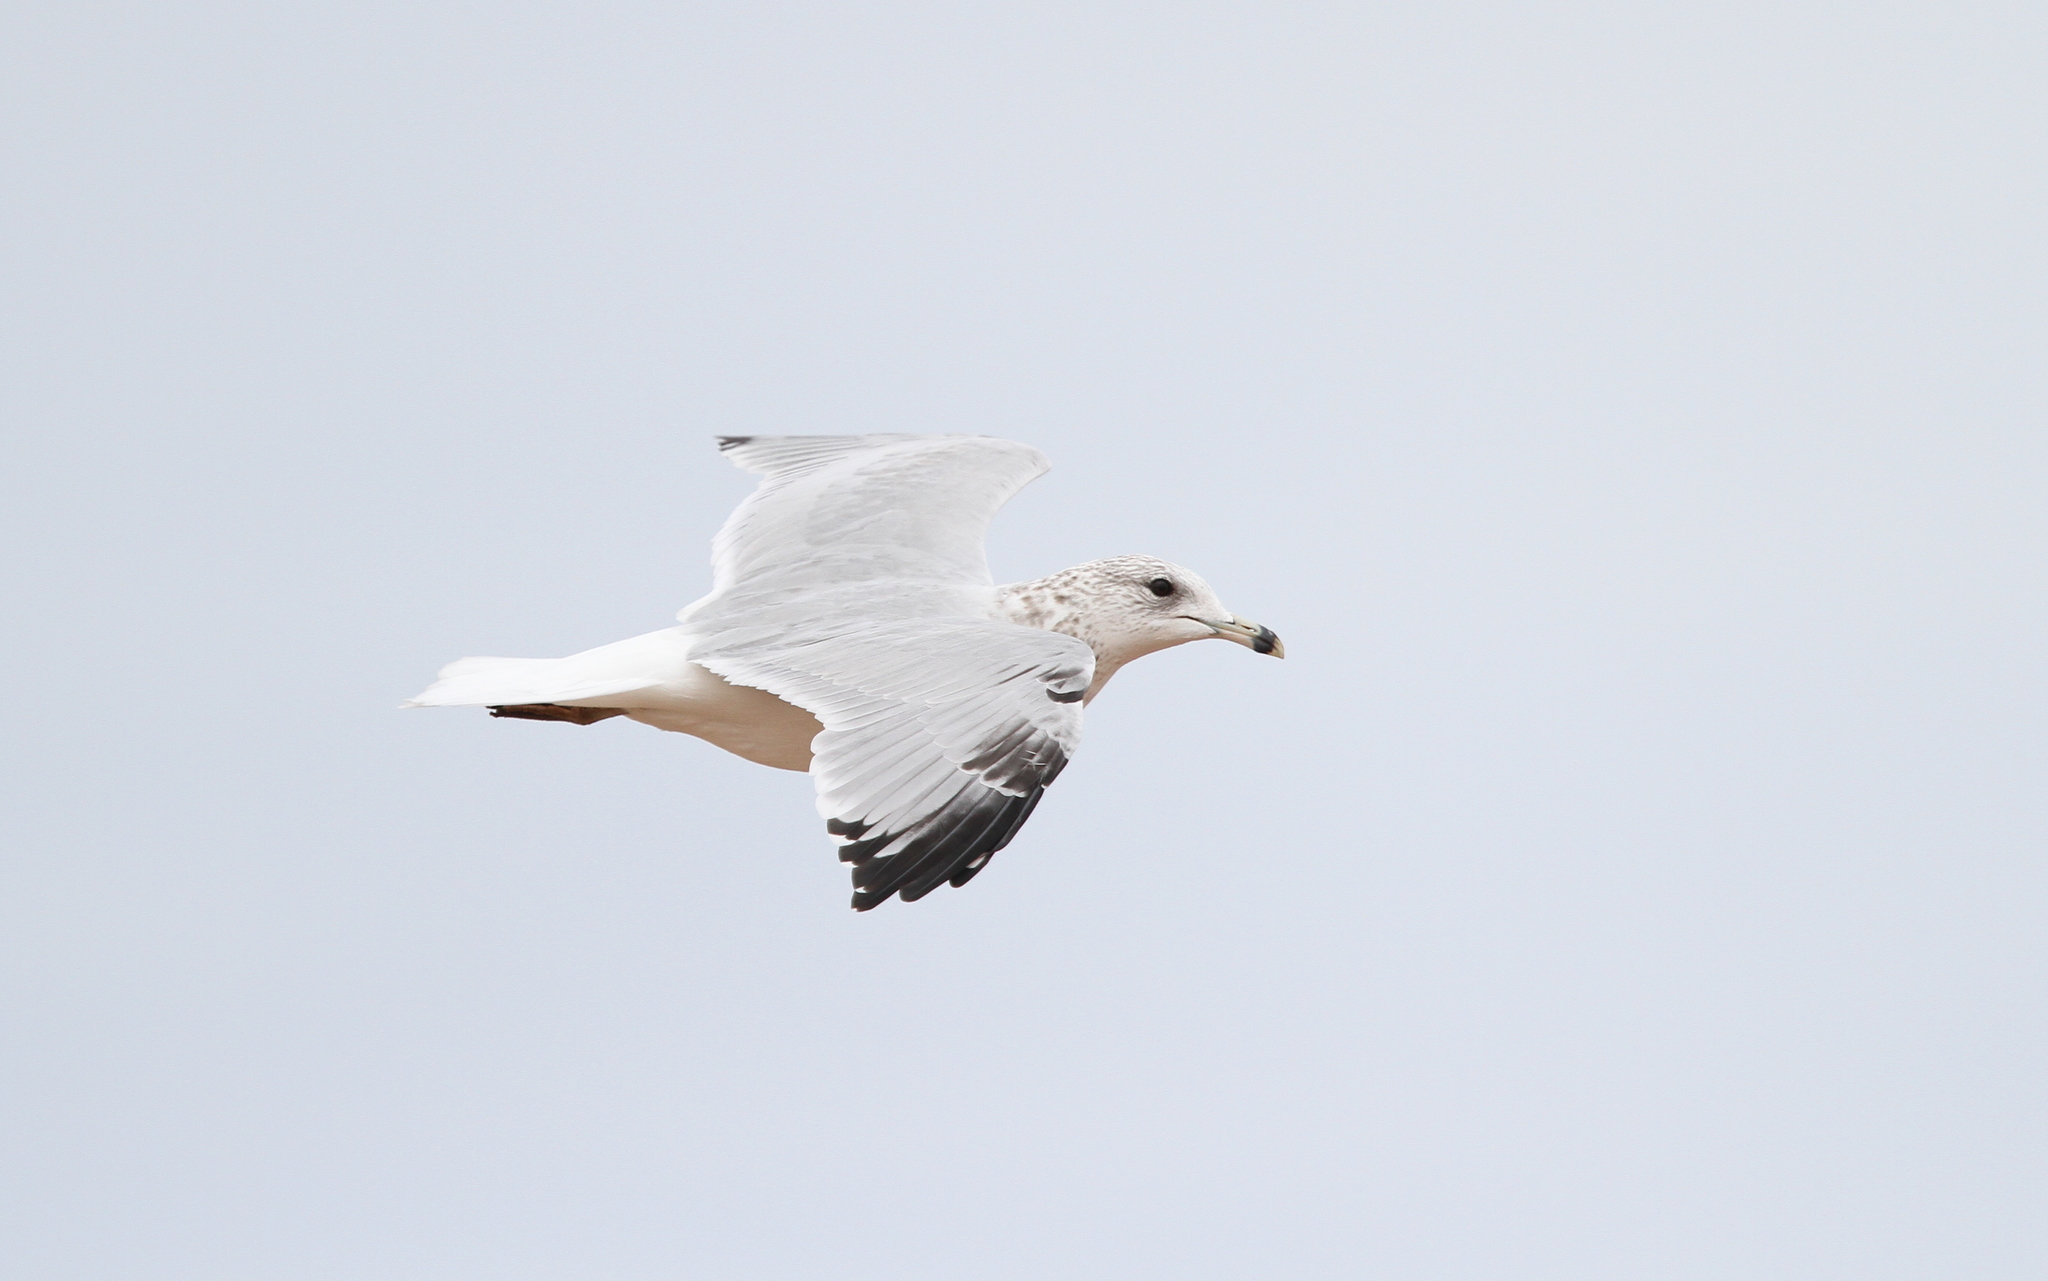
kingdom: Animalia
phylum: Chordata
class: Aves
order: Charadriiformes
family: Laridae
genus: Larus
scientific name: Larus delawarensis
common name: Ring-billed gull
